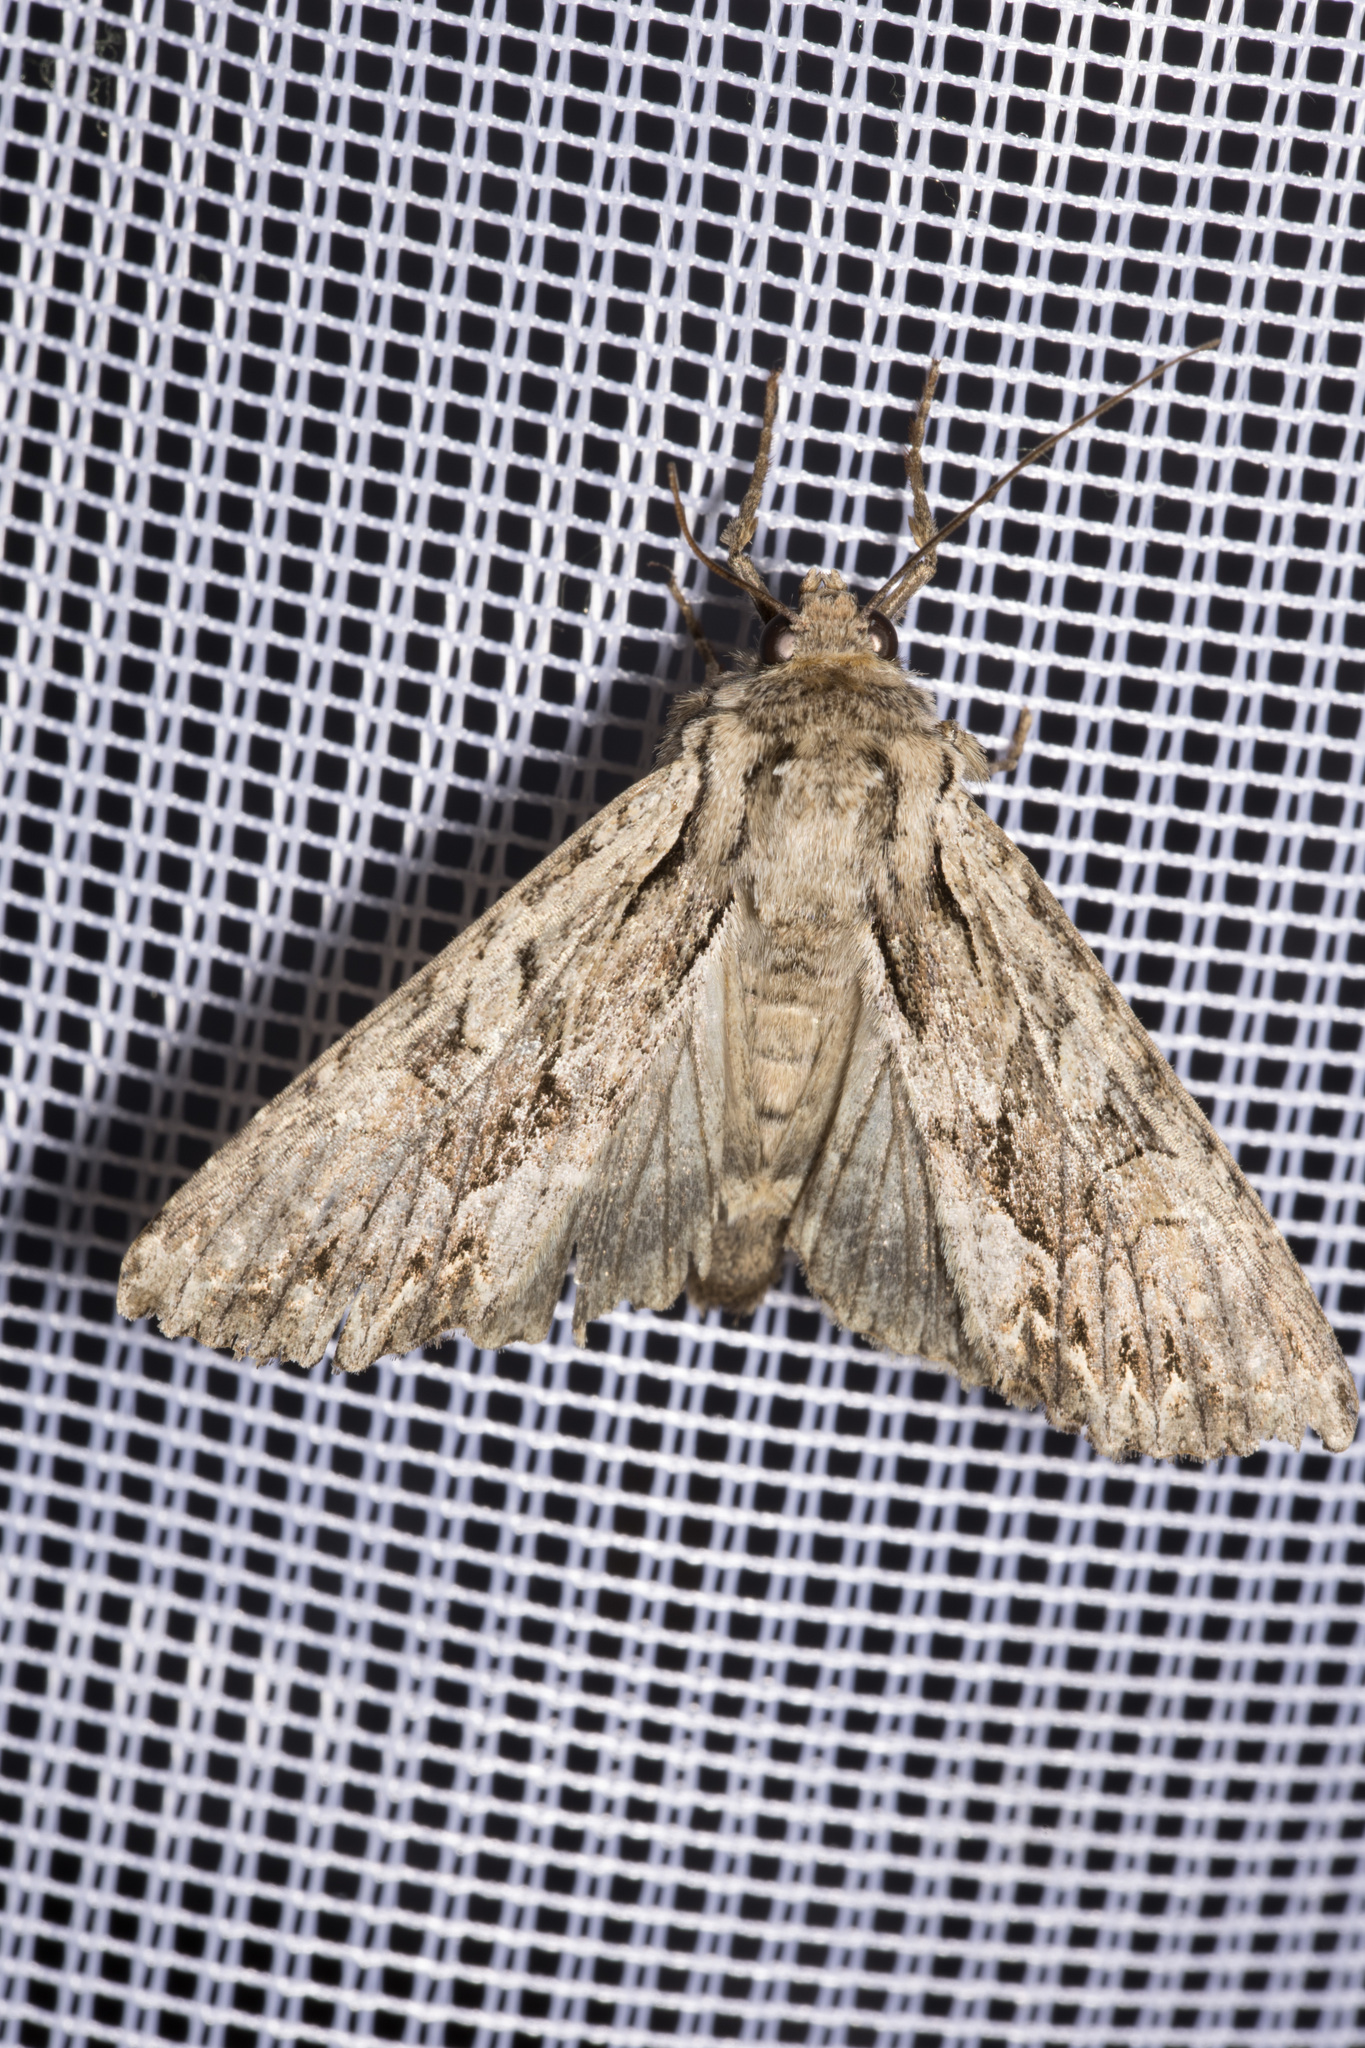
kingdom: Animalia
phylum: Arthropoda
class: Insecta
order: Lepidoptera
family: Noctuidae
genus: Apamea
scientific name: Apamea monoglypha
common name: Dark arches
